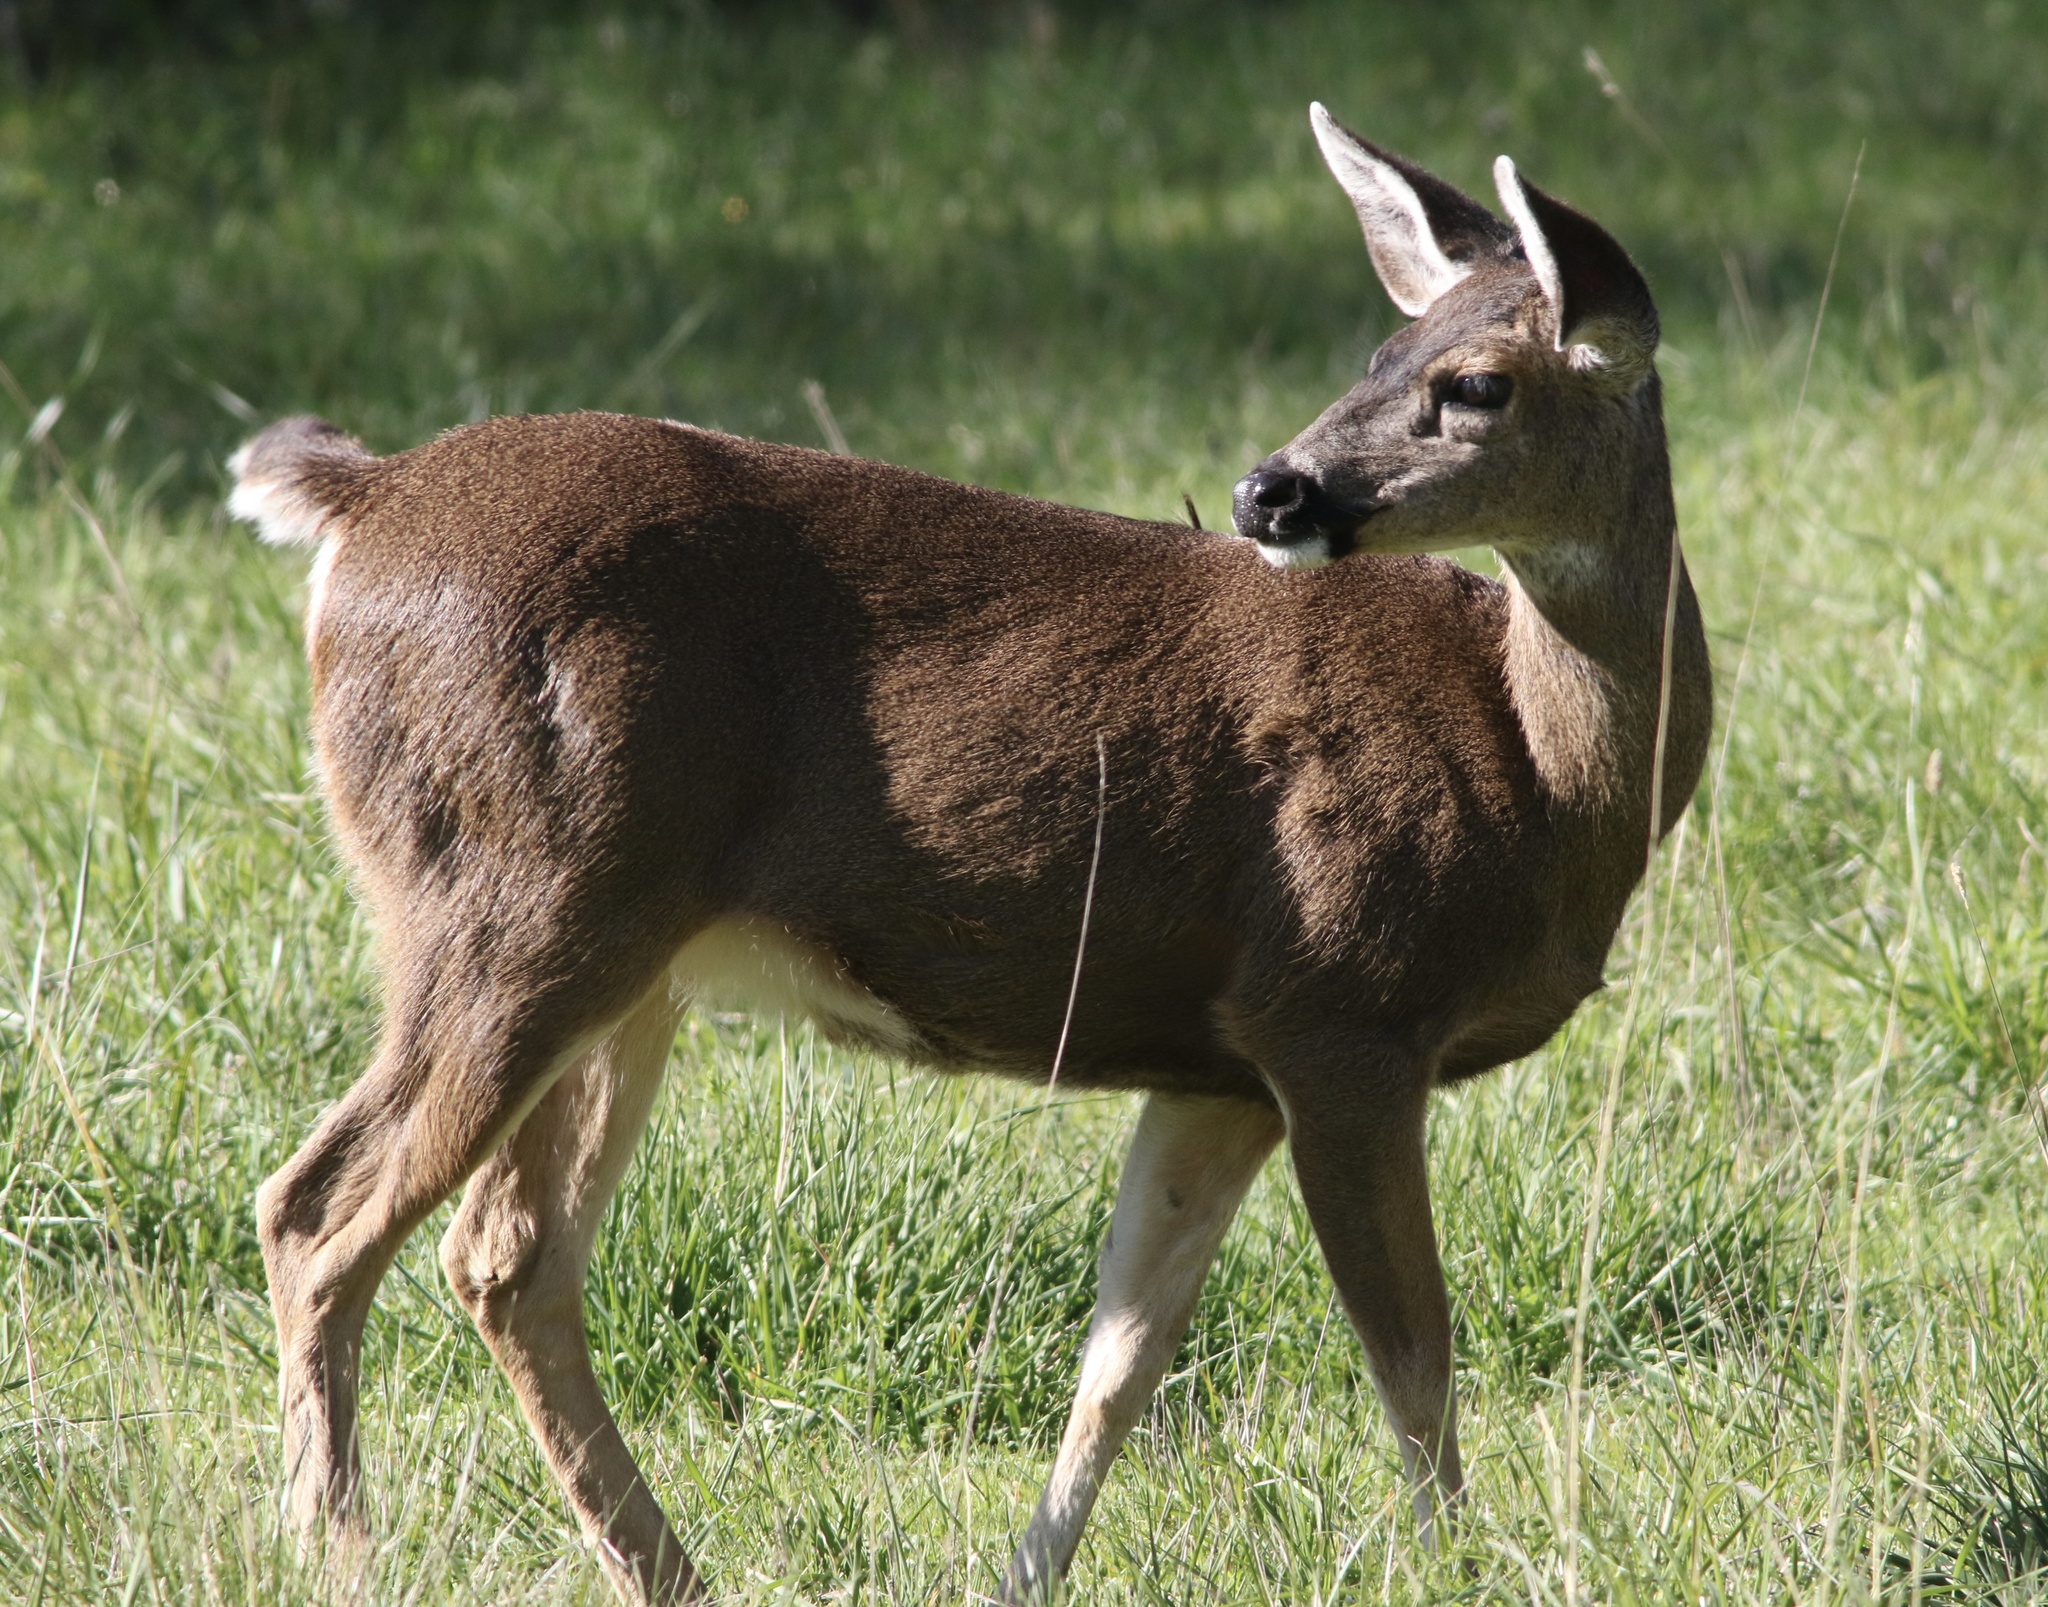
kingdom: Animalia
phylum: Chordata
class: Mammalia
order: Artiodactyla
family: Cervidae
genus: Odocoileus
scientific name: Odocoileus hemionus
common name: Mule deer
